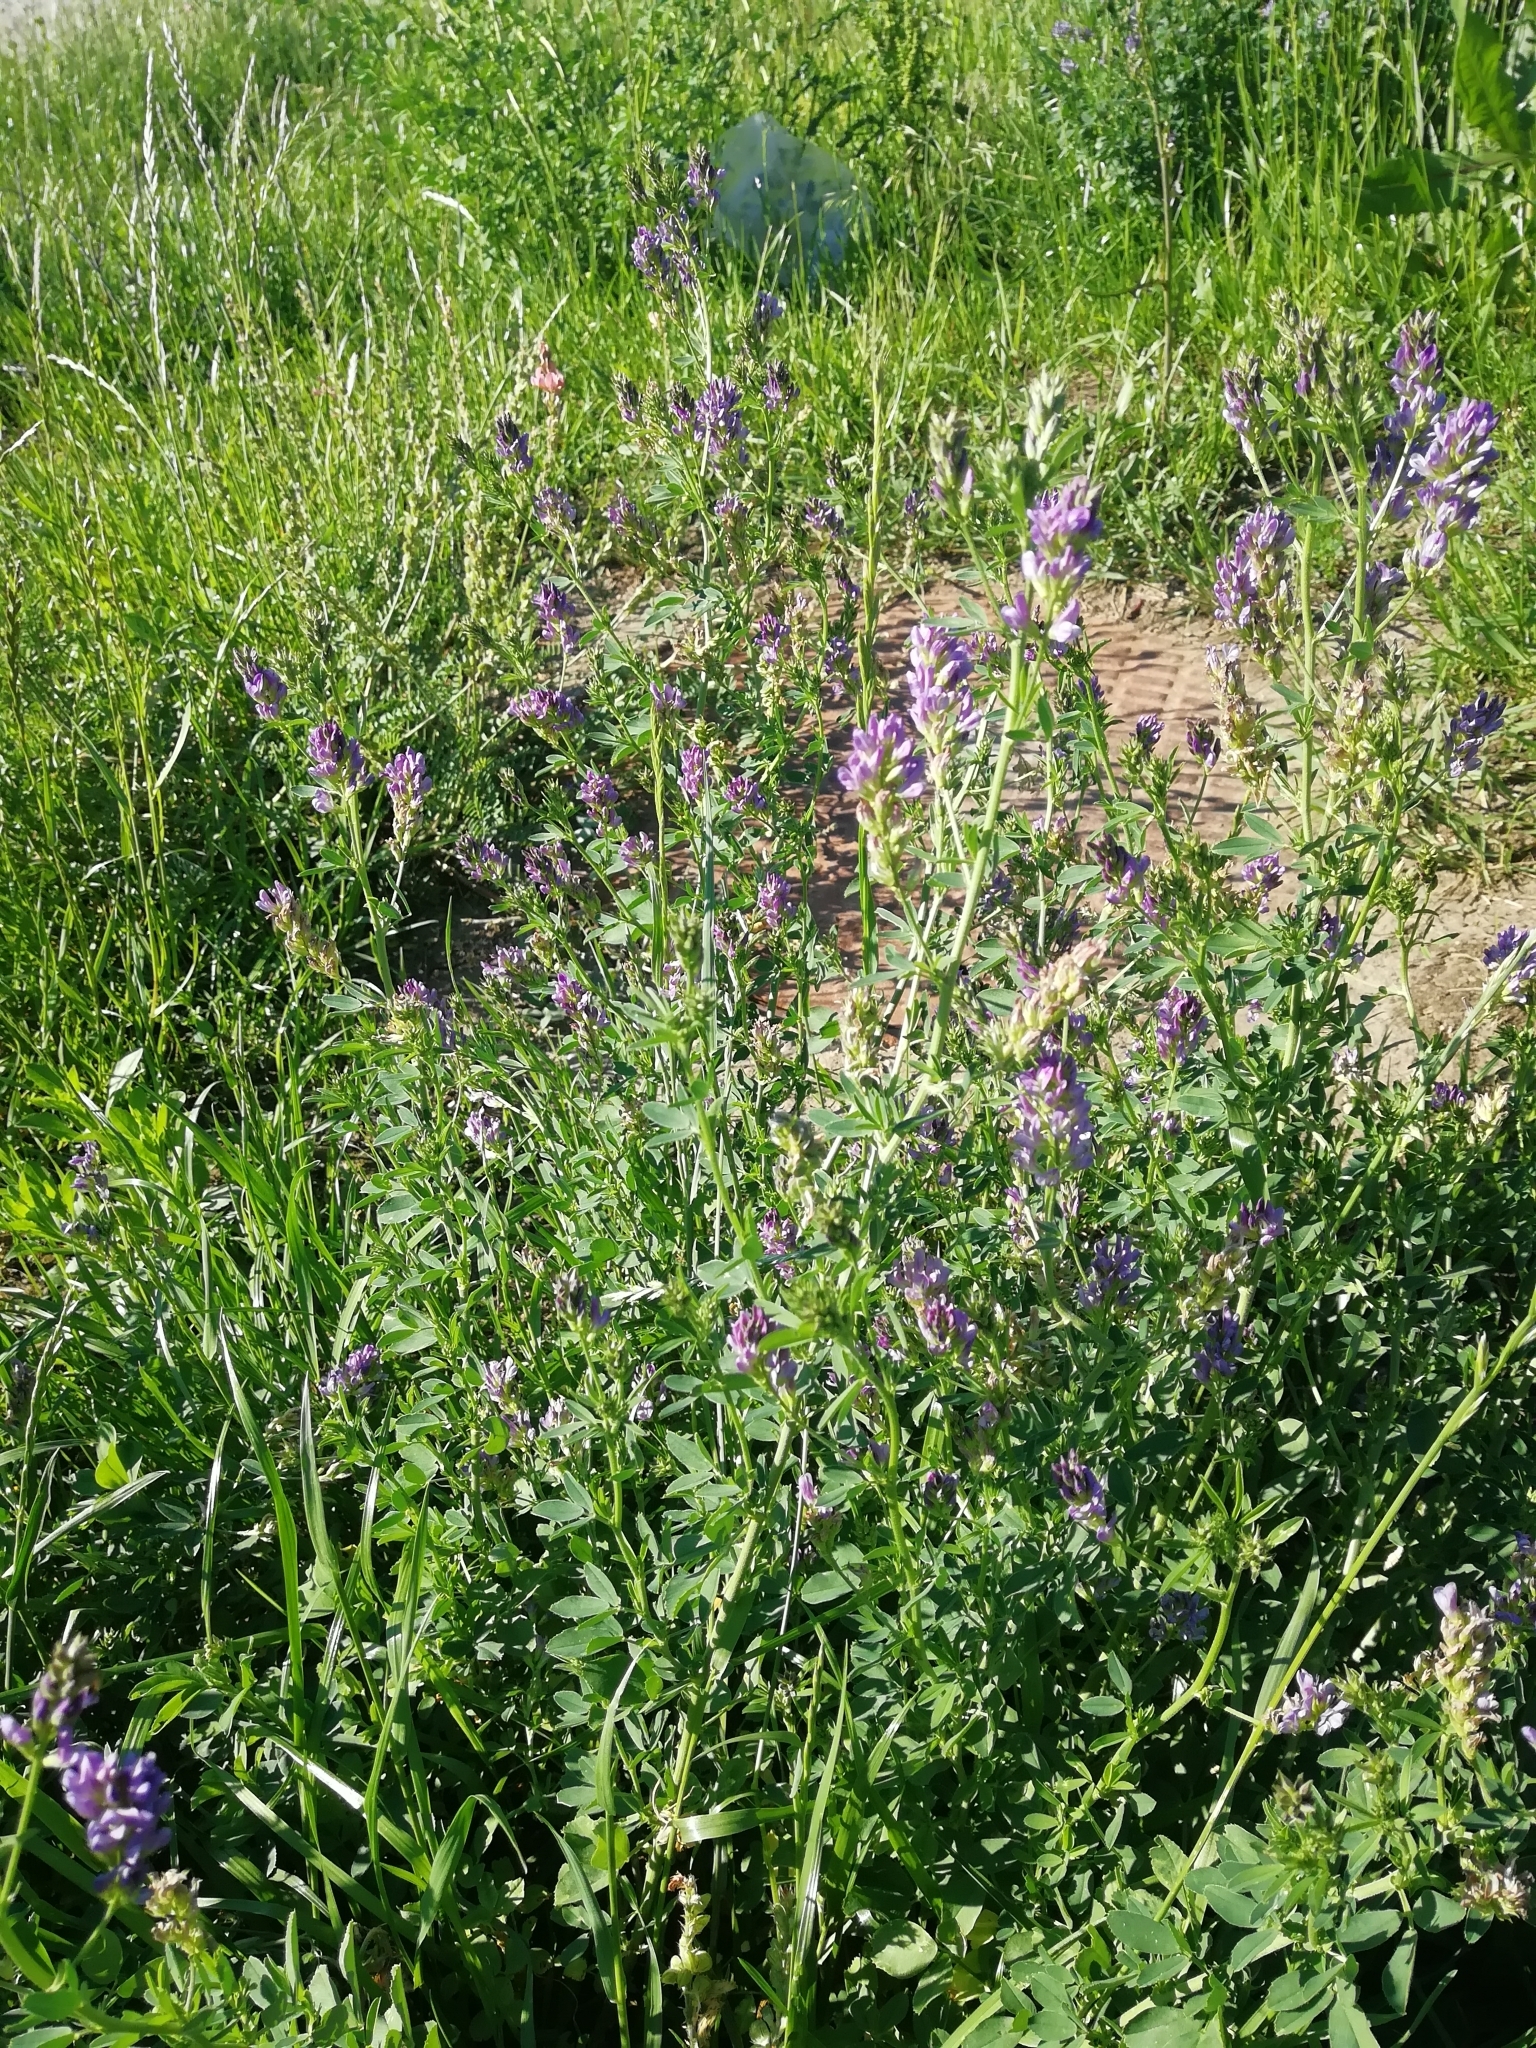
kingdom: Plantae
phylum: Tracheophyta
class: Magnoliopsida
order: Fabales
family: Fabaceae
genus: Medicago
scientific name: Medicago sativa
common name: Alfalfa
